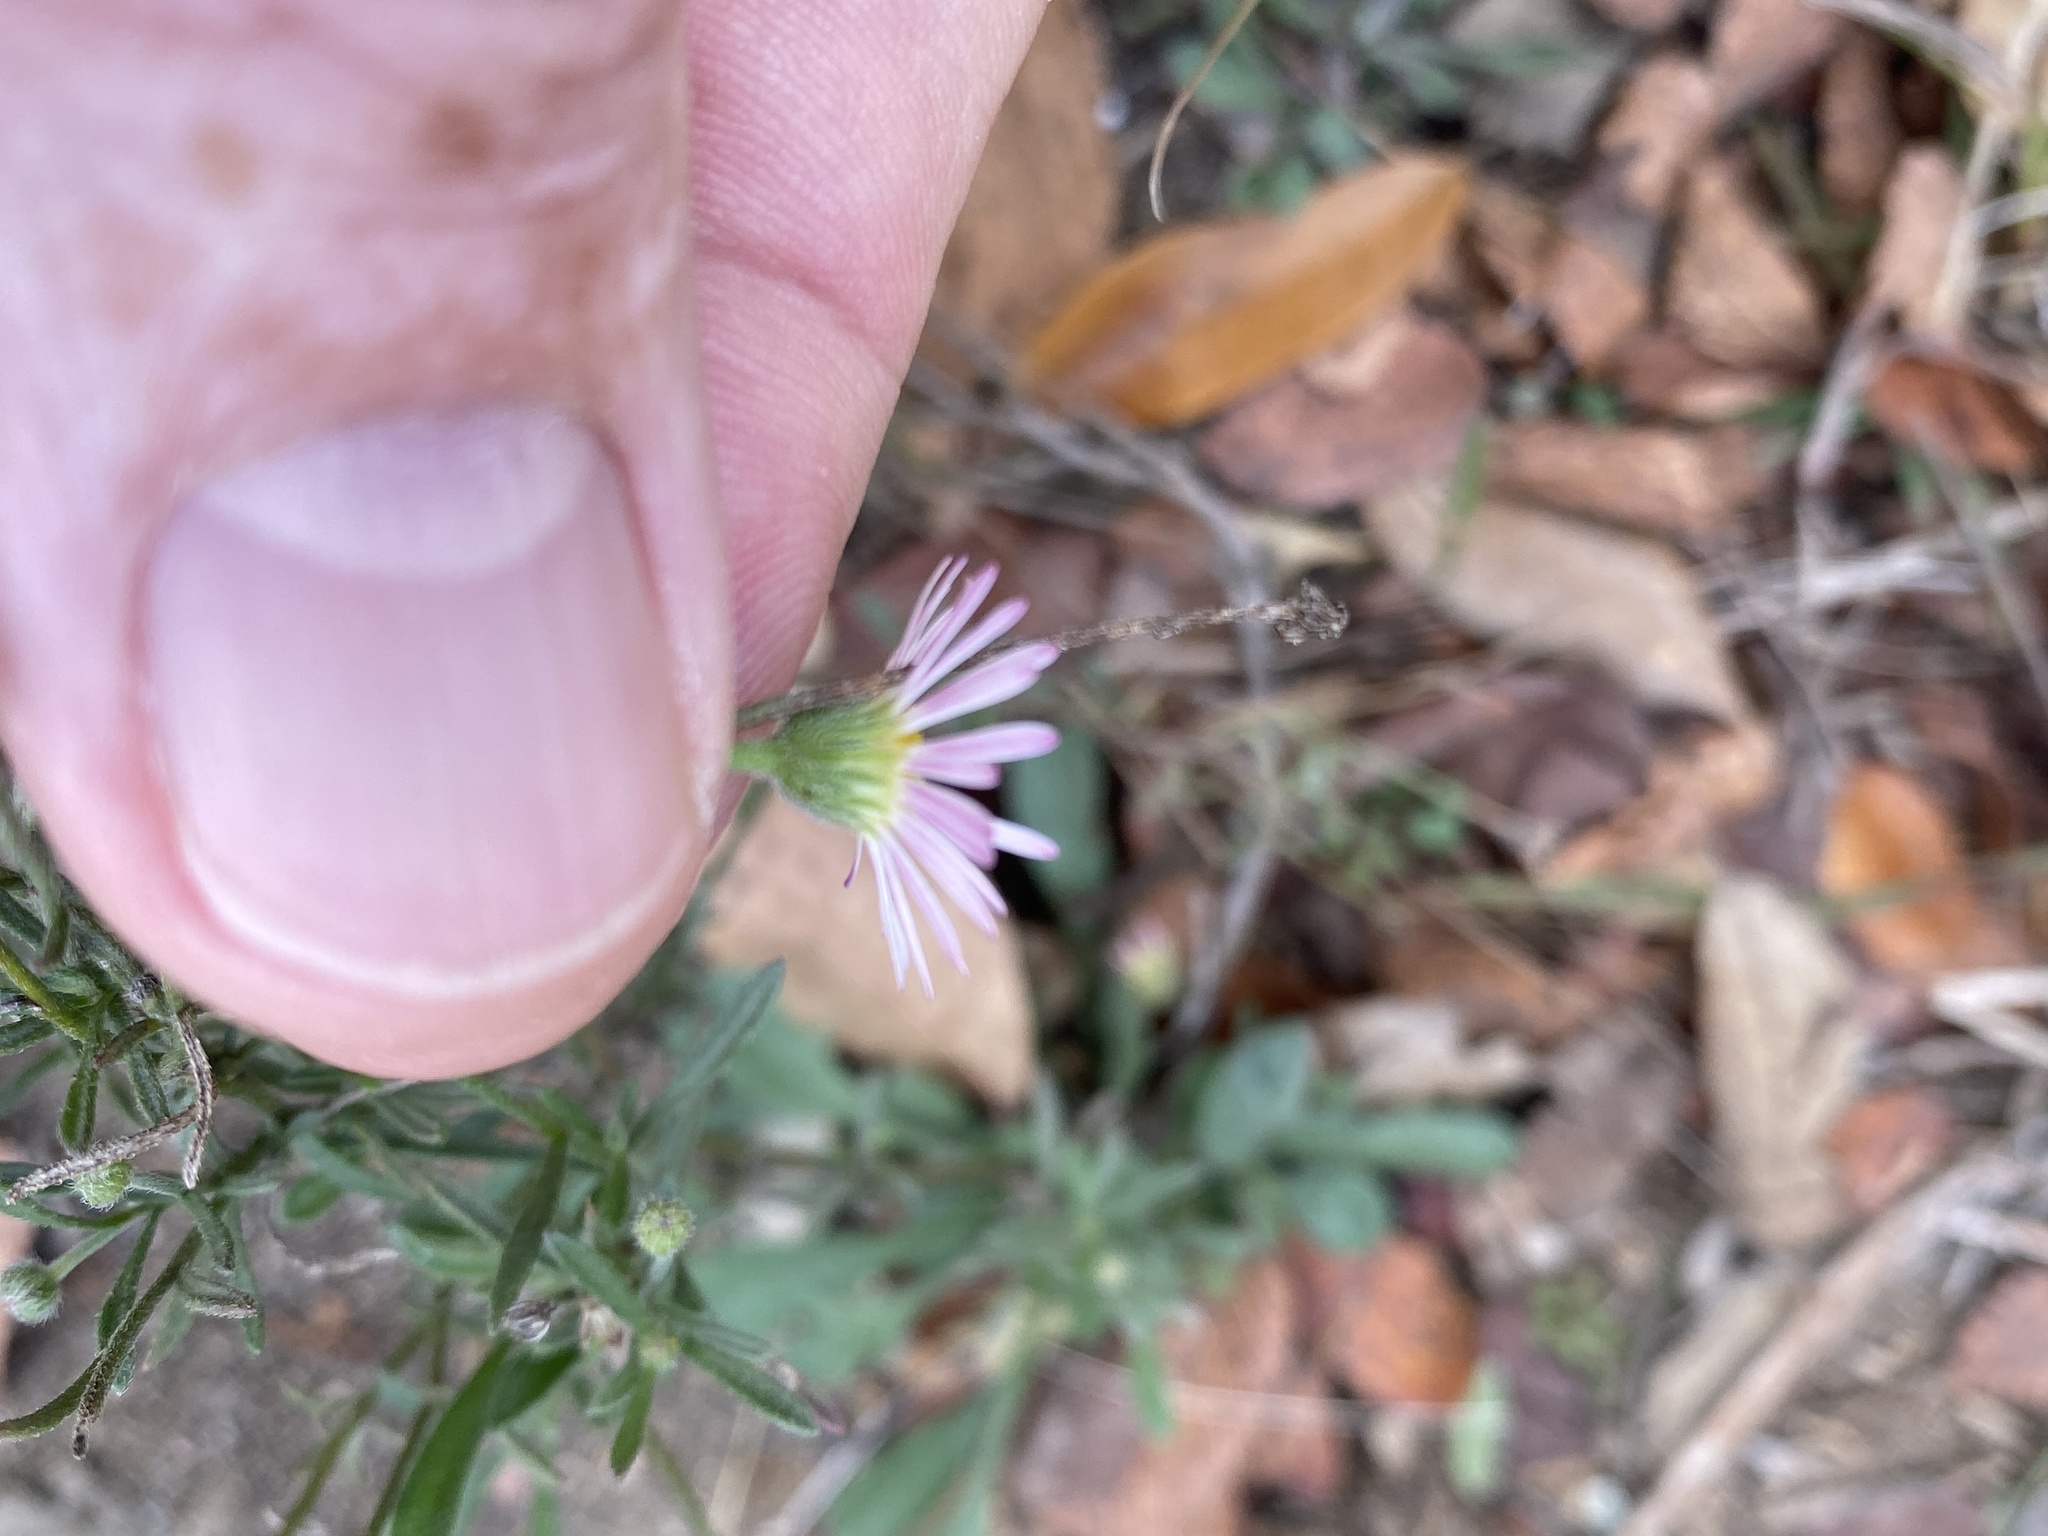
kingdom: Plantae
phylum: Tracheophyta
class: Magnoliopsida
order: Asterales
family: Asteraceae
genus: Erigeron
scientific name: Erigeron modestus
